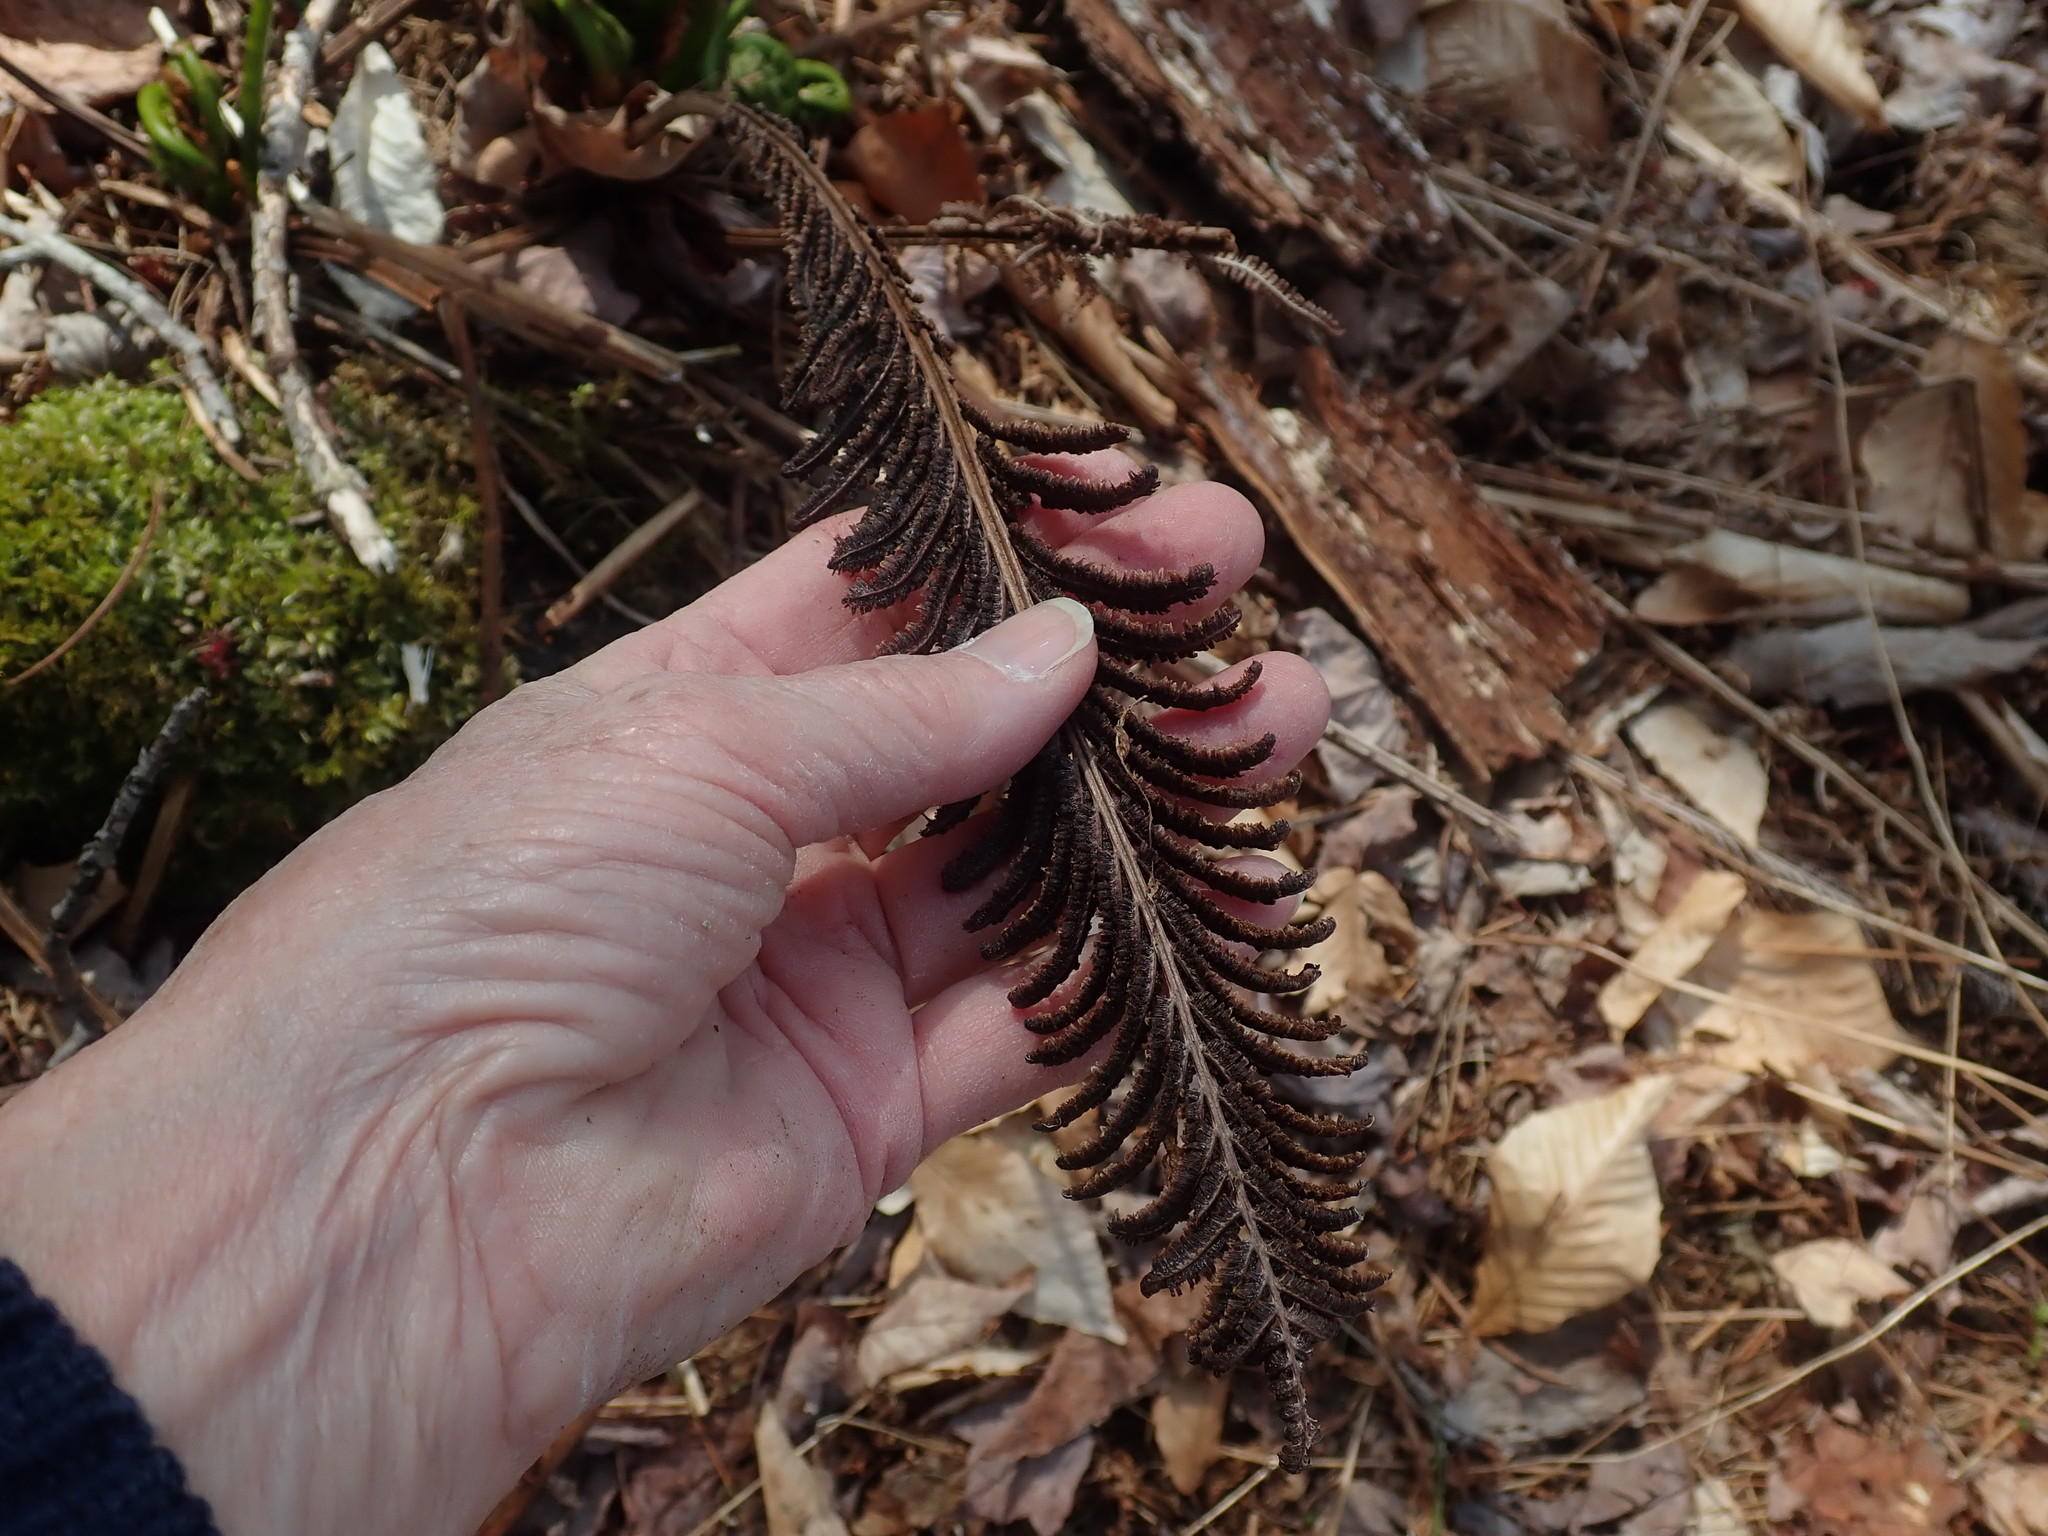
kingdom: Plantae
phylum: Tracheophyta
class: Polypodiopsida
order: Polypodiales
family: Onocleaceae
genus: Matteuccia
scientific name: Matteuccia struthiopteris
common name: Ostrich fern
